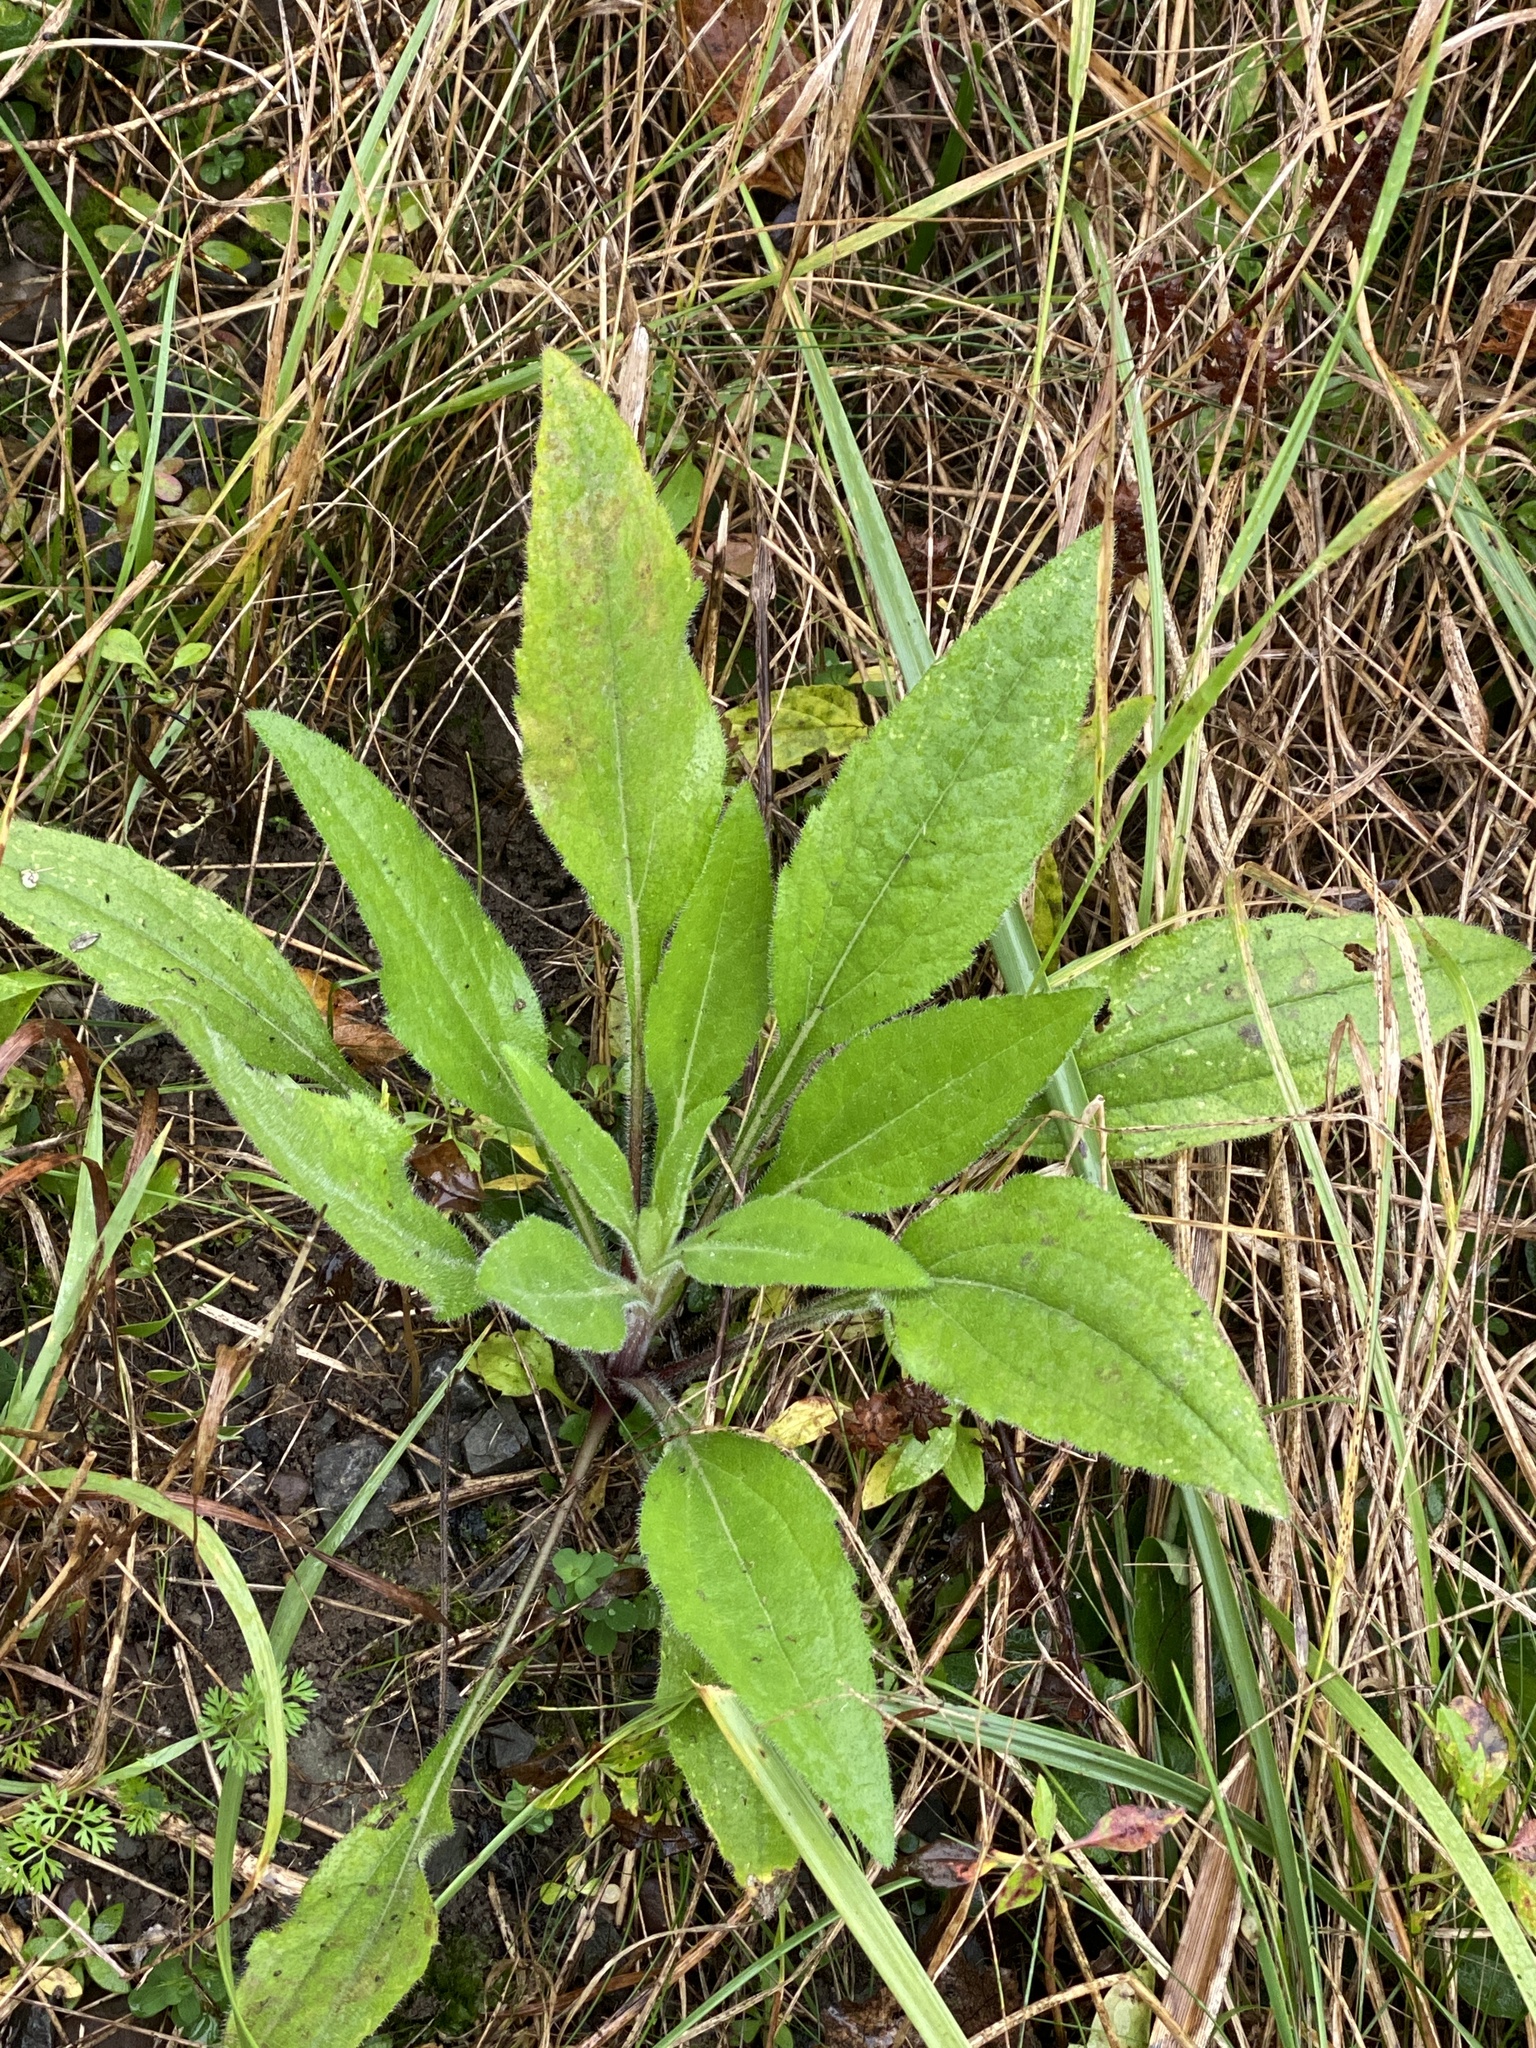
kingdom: Plantae
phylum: Tracheophyta
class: Magnoliopsida
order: Asterales
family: Asteraceae
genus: Rudbeckia
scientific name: Rudbeckia hirta
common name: Black-eyed-susan
